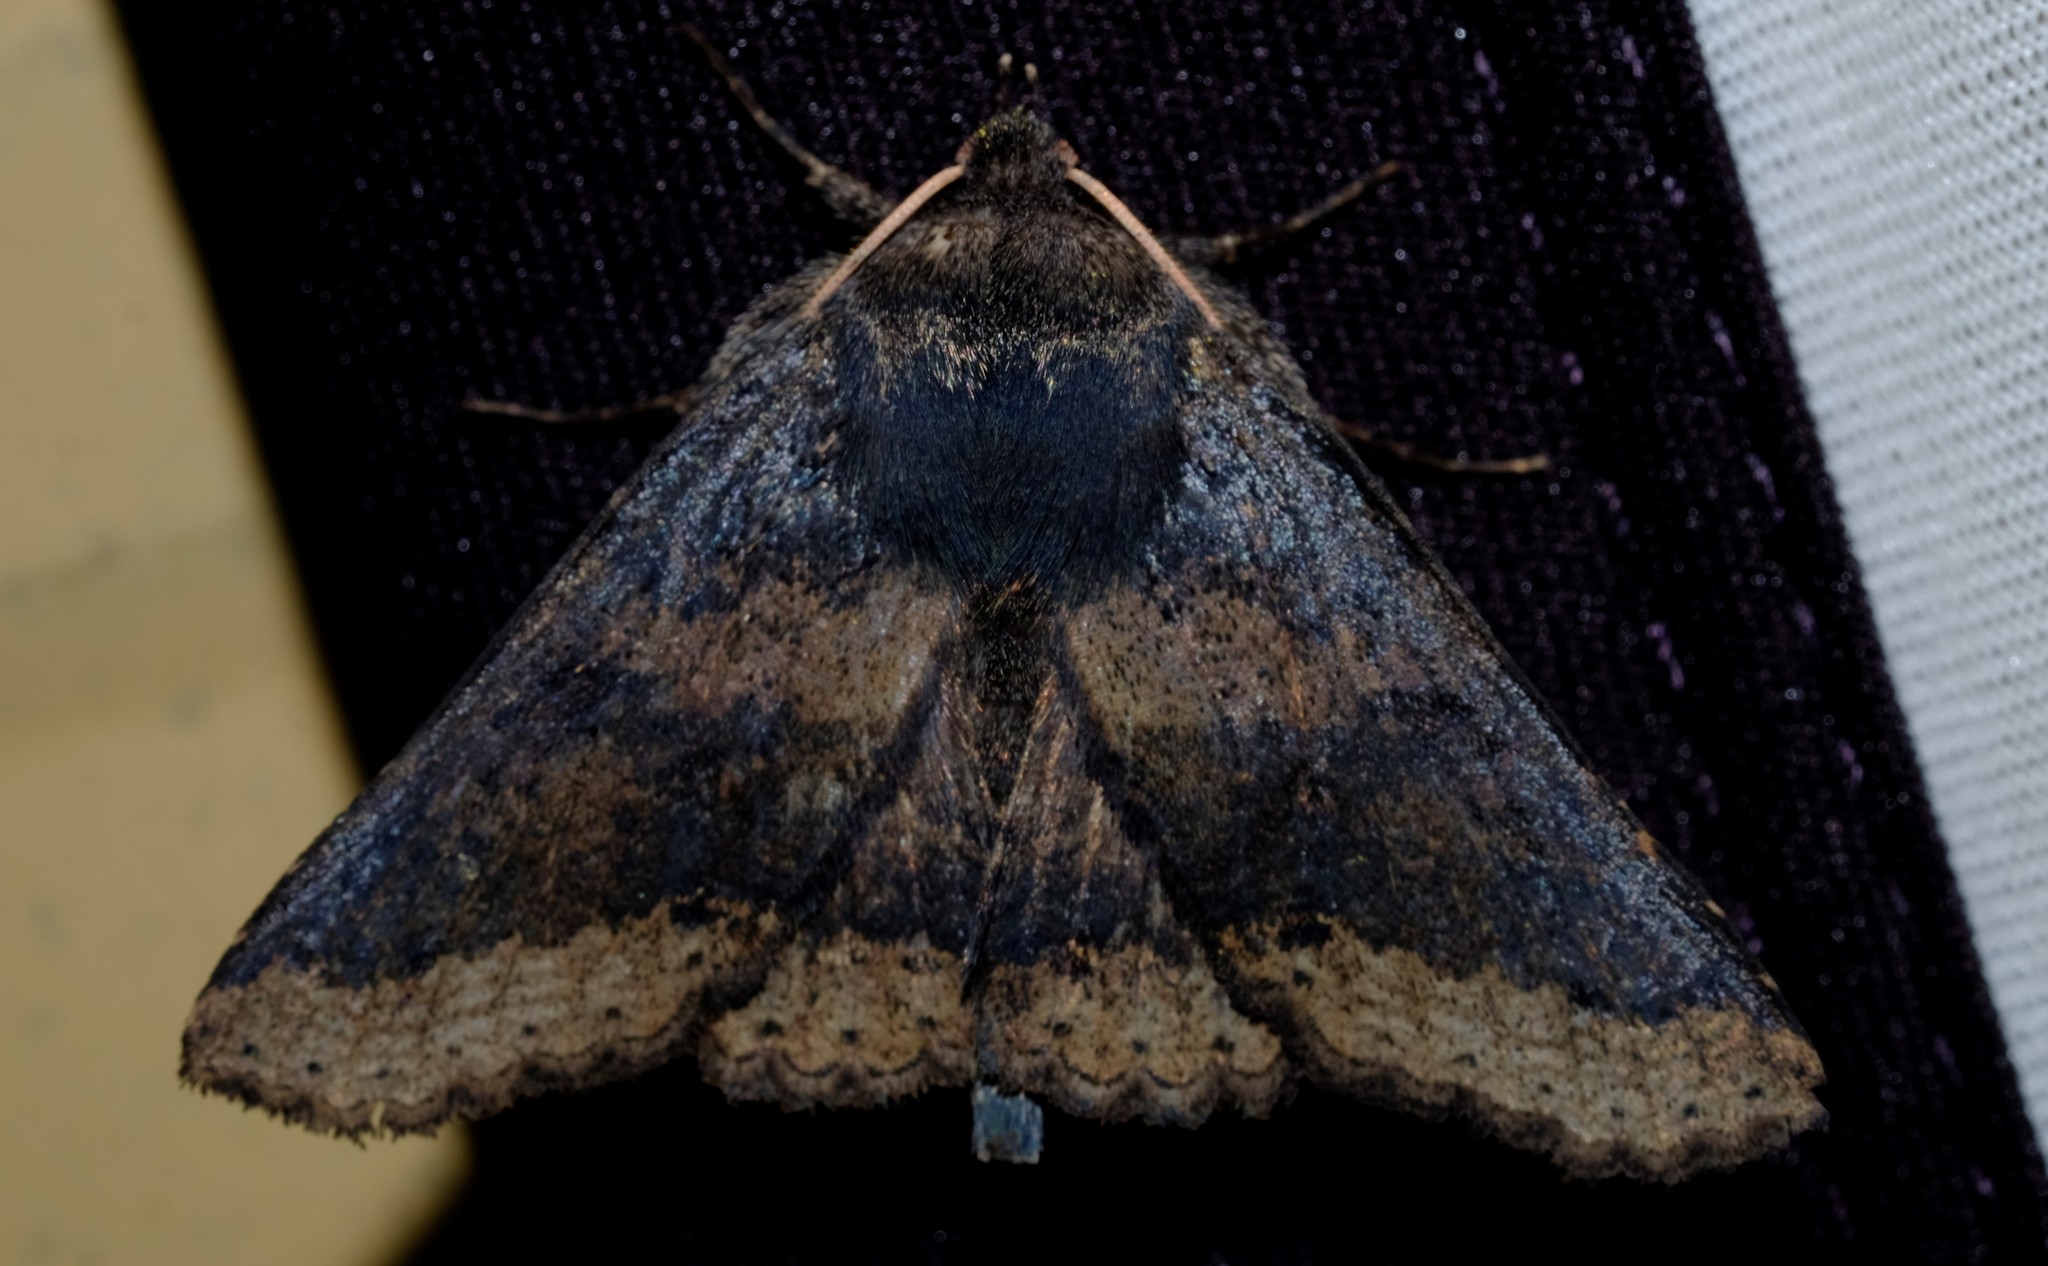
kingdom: Animalia
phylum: Arthropoda
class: Insecta
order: Lepidoptera
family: Erebidae
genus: Praxis
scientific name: Praxis pandesma
